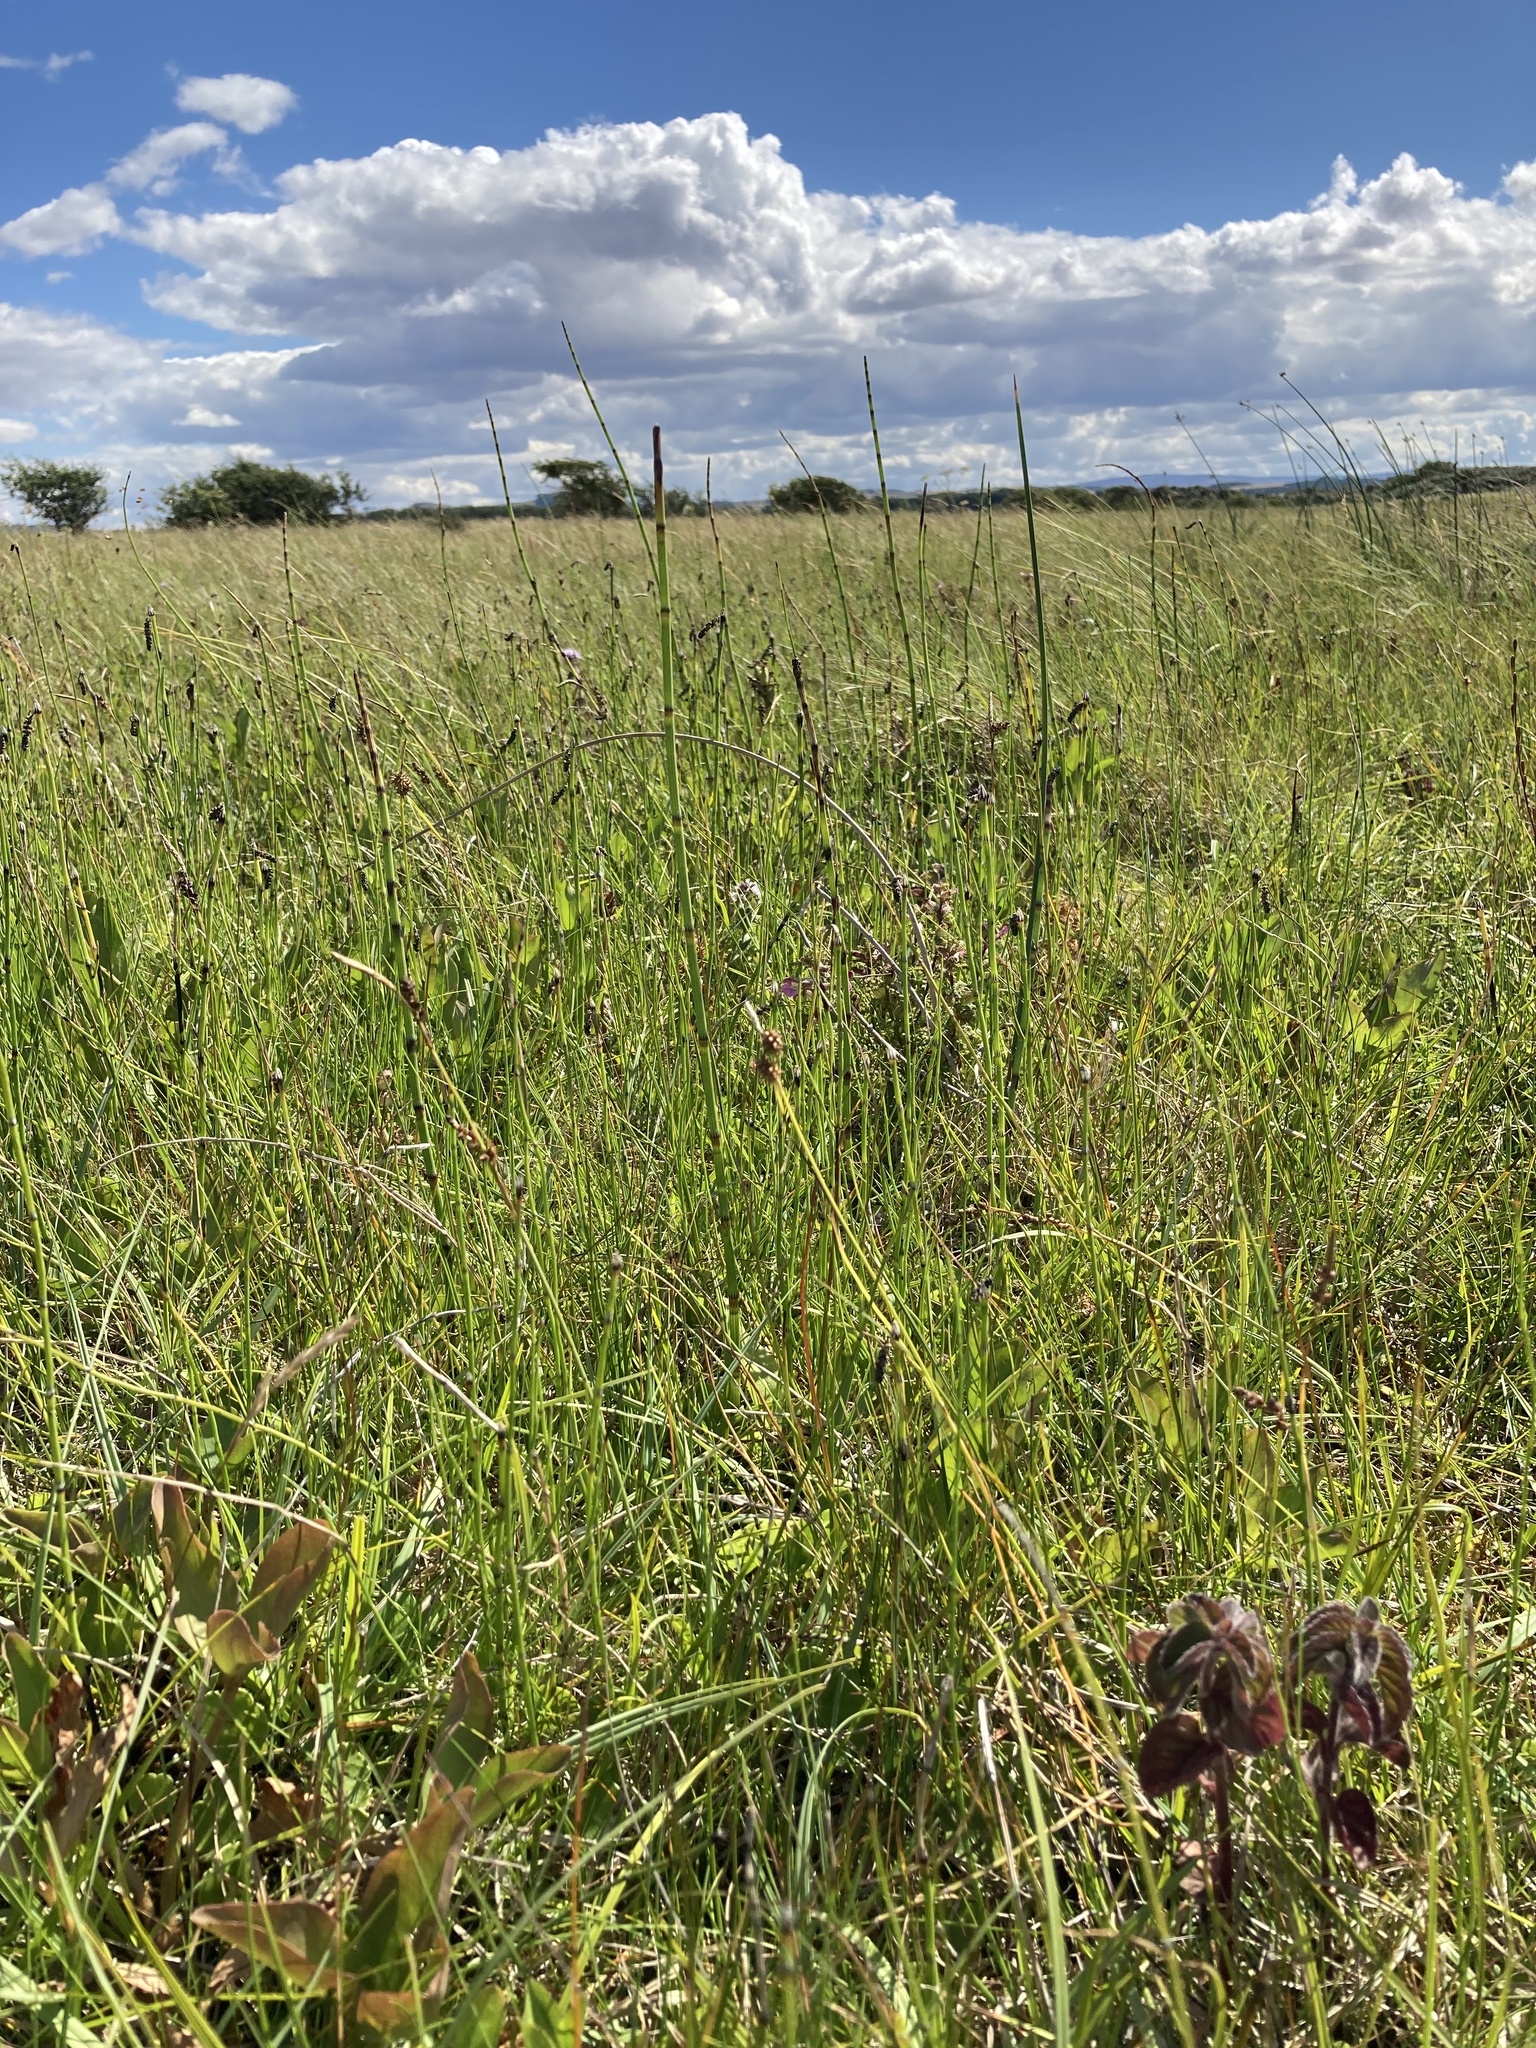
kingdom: Plantae
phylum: Tracheophyta
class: Polypodiopsida
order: Equisetales
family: Equisetaceae
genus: Equisetum
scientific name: Equisetum palustre
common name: Marsh horsetail
